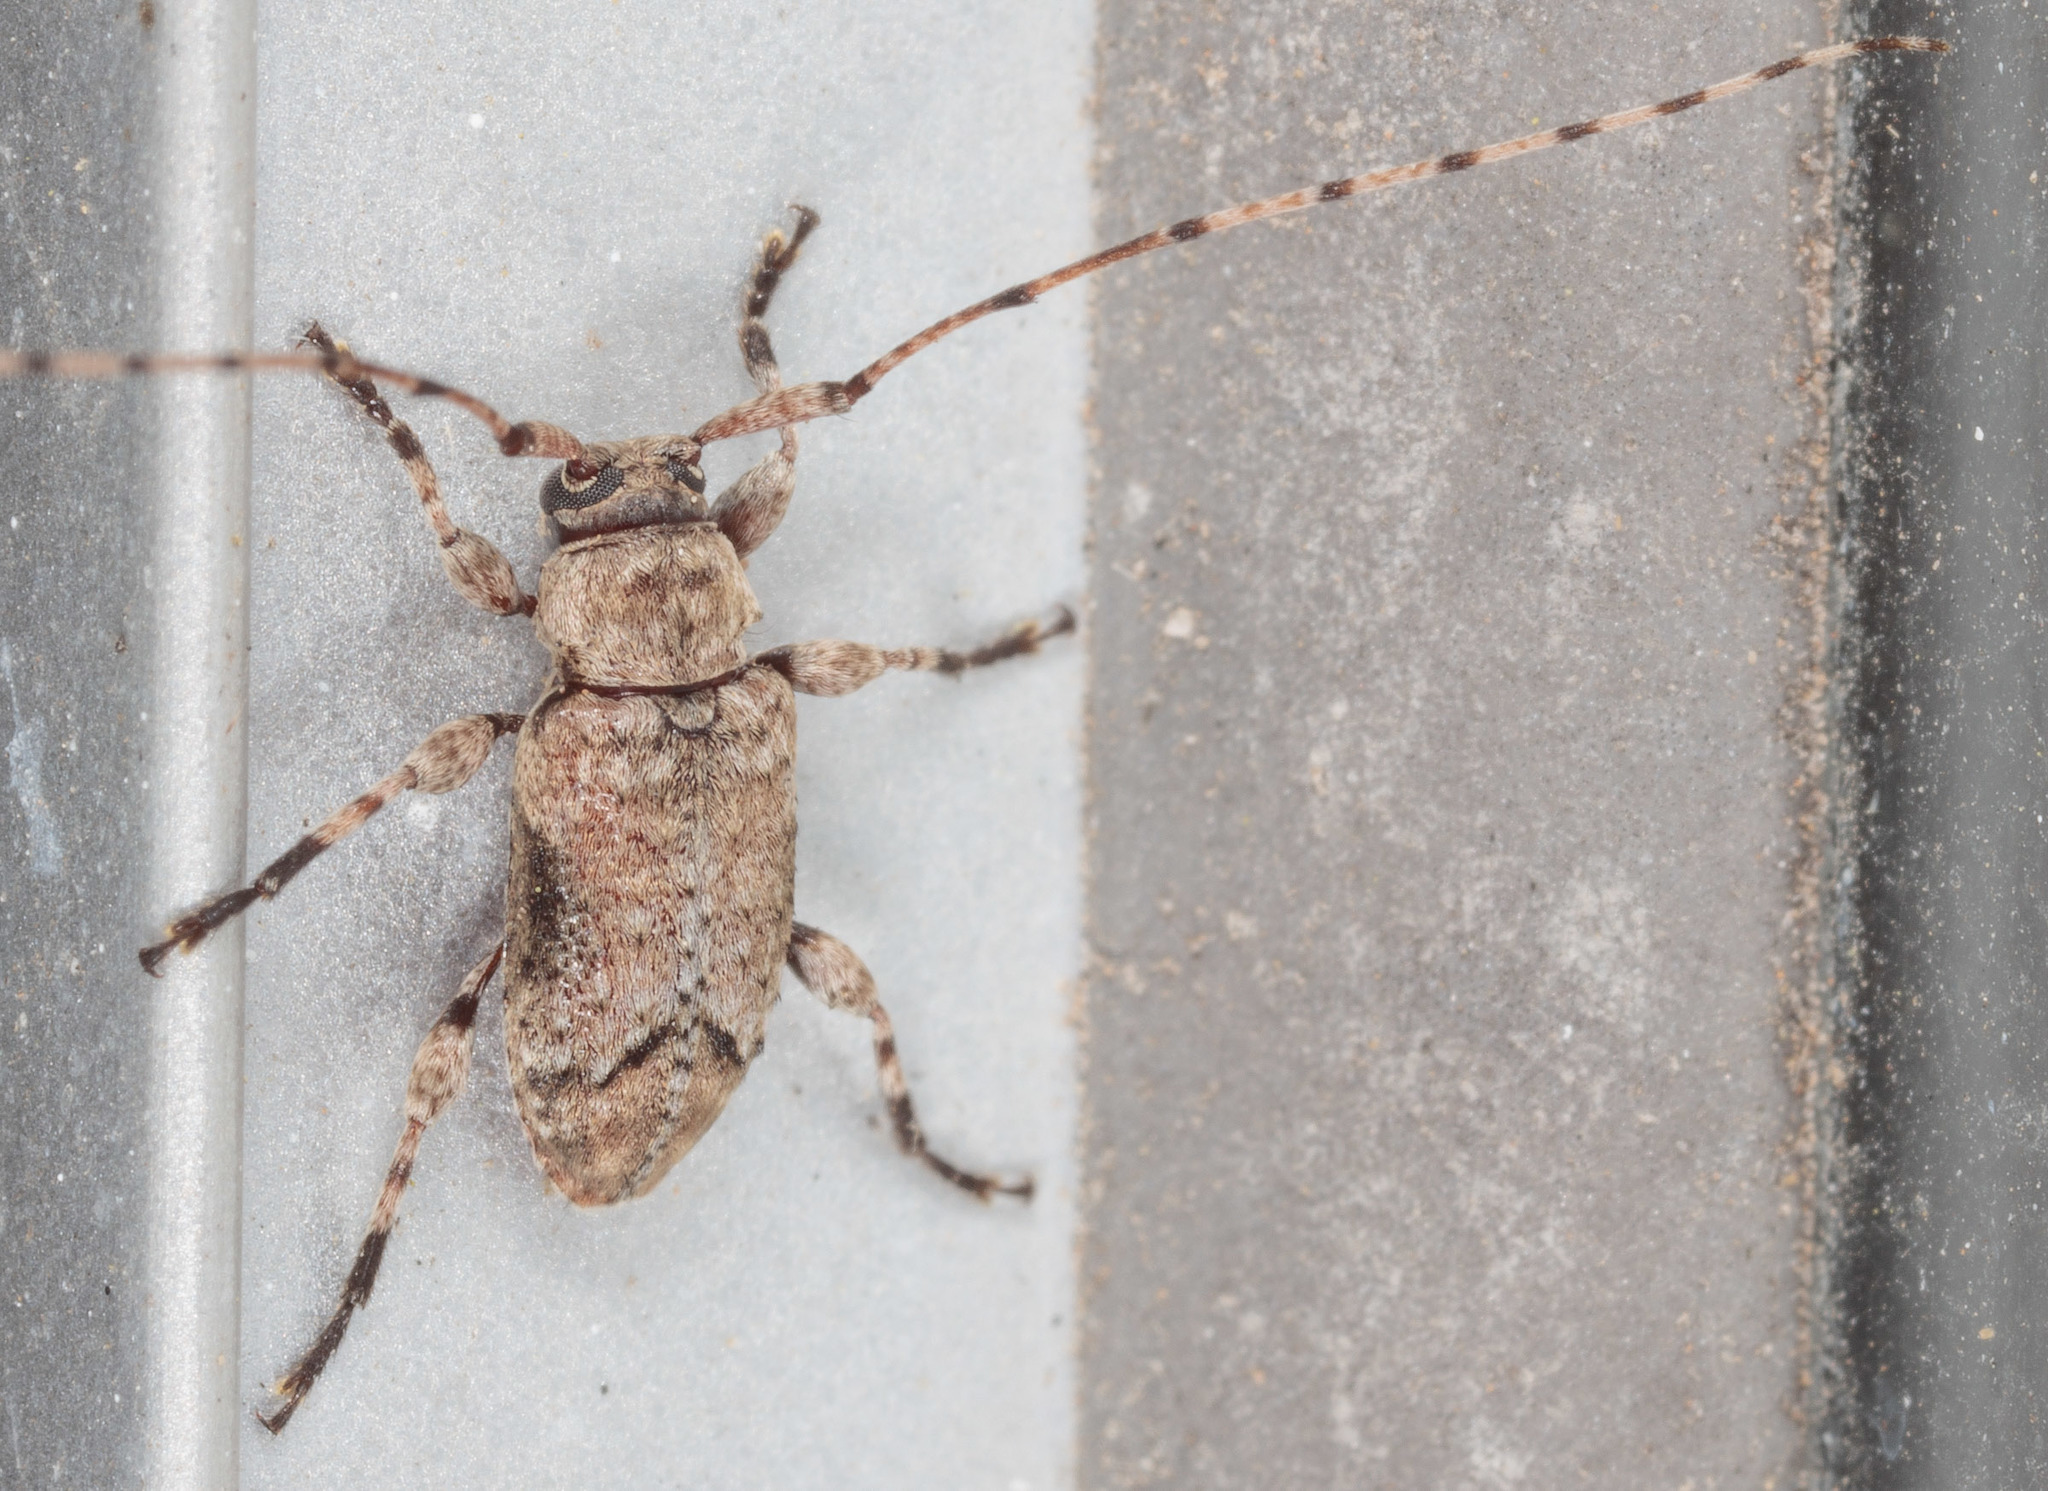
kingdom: Animalia
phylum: Arthropoda
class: Insecta
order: Coleoptera
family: Cerambycidae
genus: Sternidius
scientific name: Sternidius mimeticus
